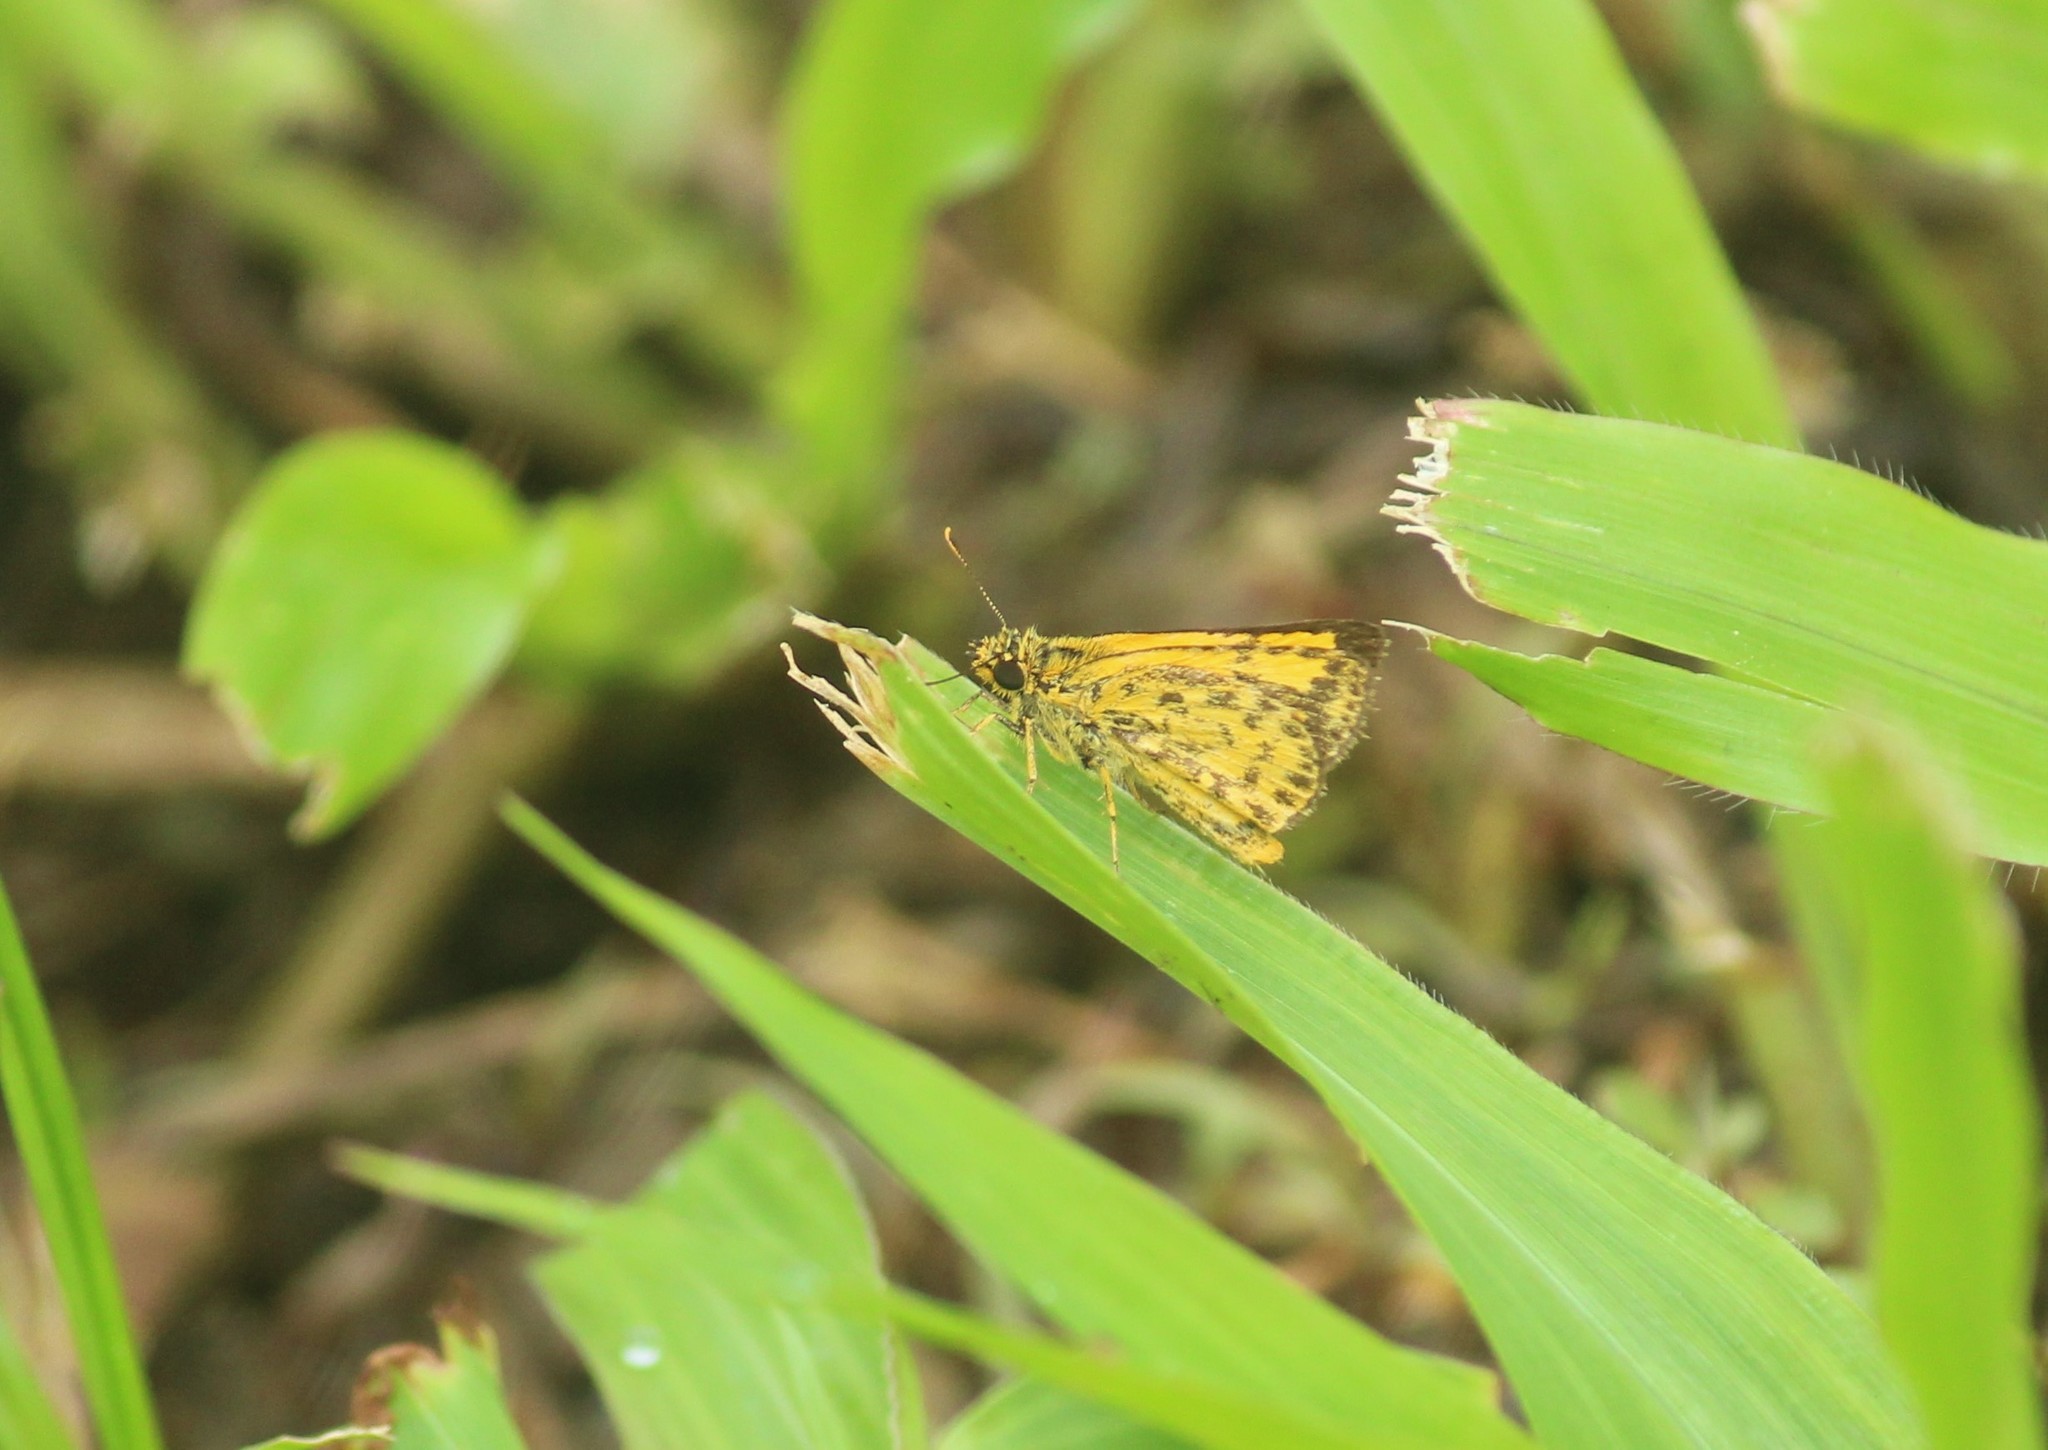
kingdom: Animalia
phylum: Arthropoda
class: Insecta
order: Lepidoptera
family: Hesperiidae
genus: Ampittia
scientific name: Ampittia dioscorides
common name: Common bush hopper
